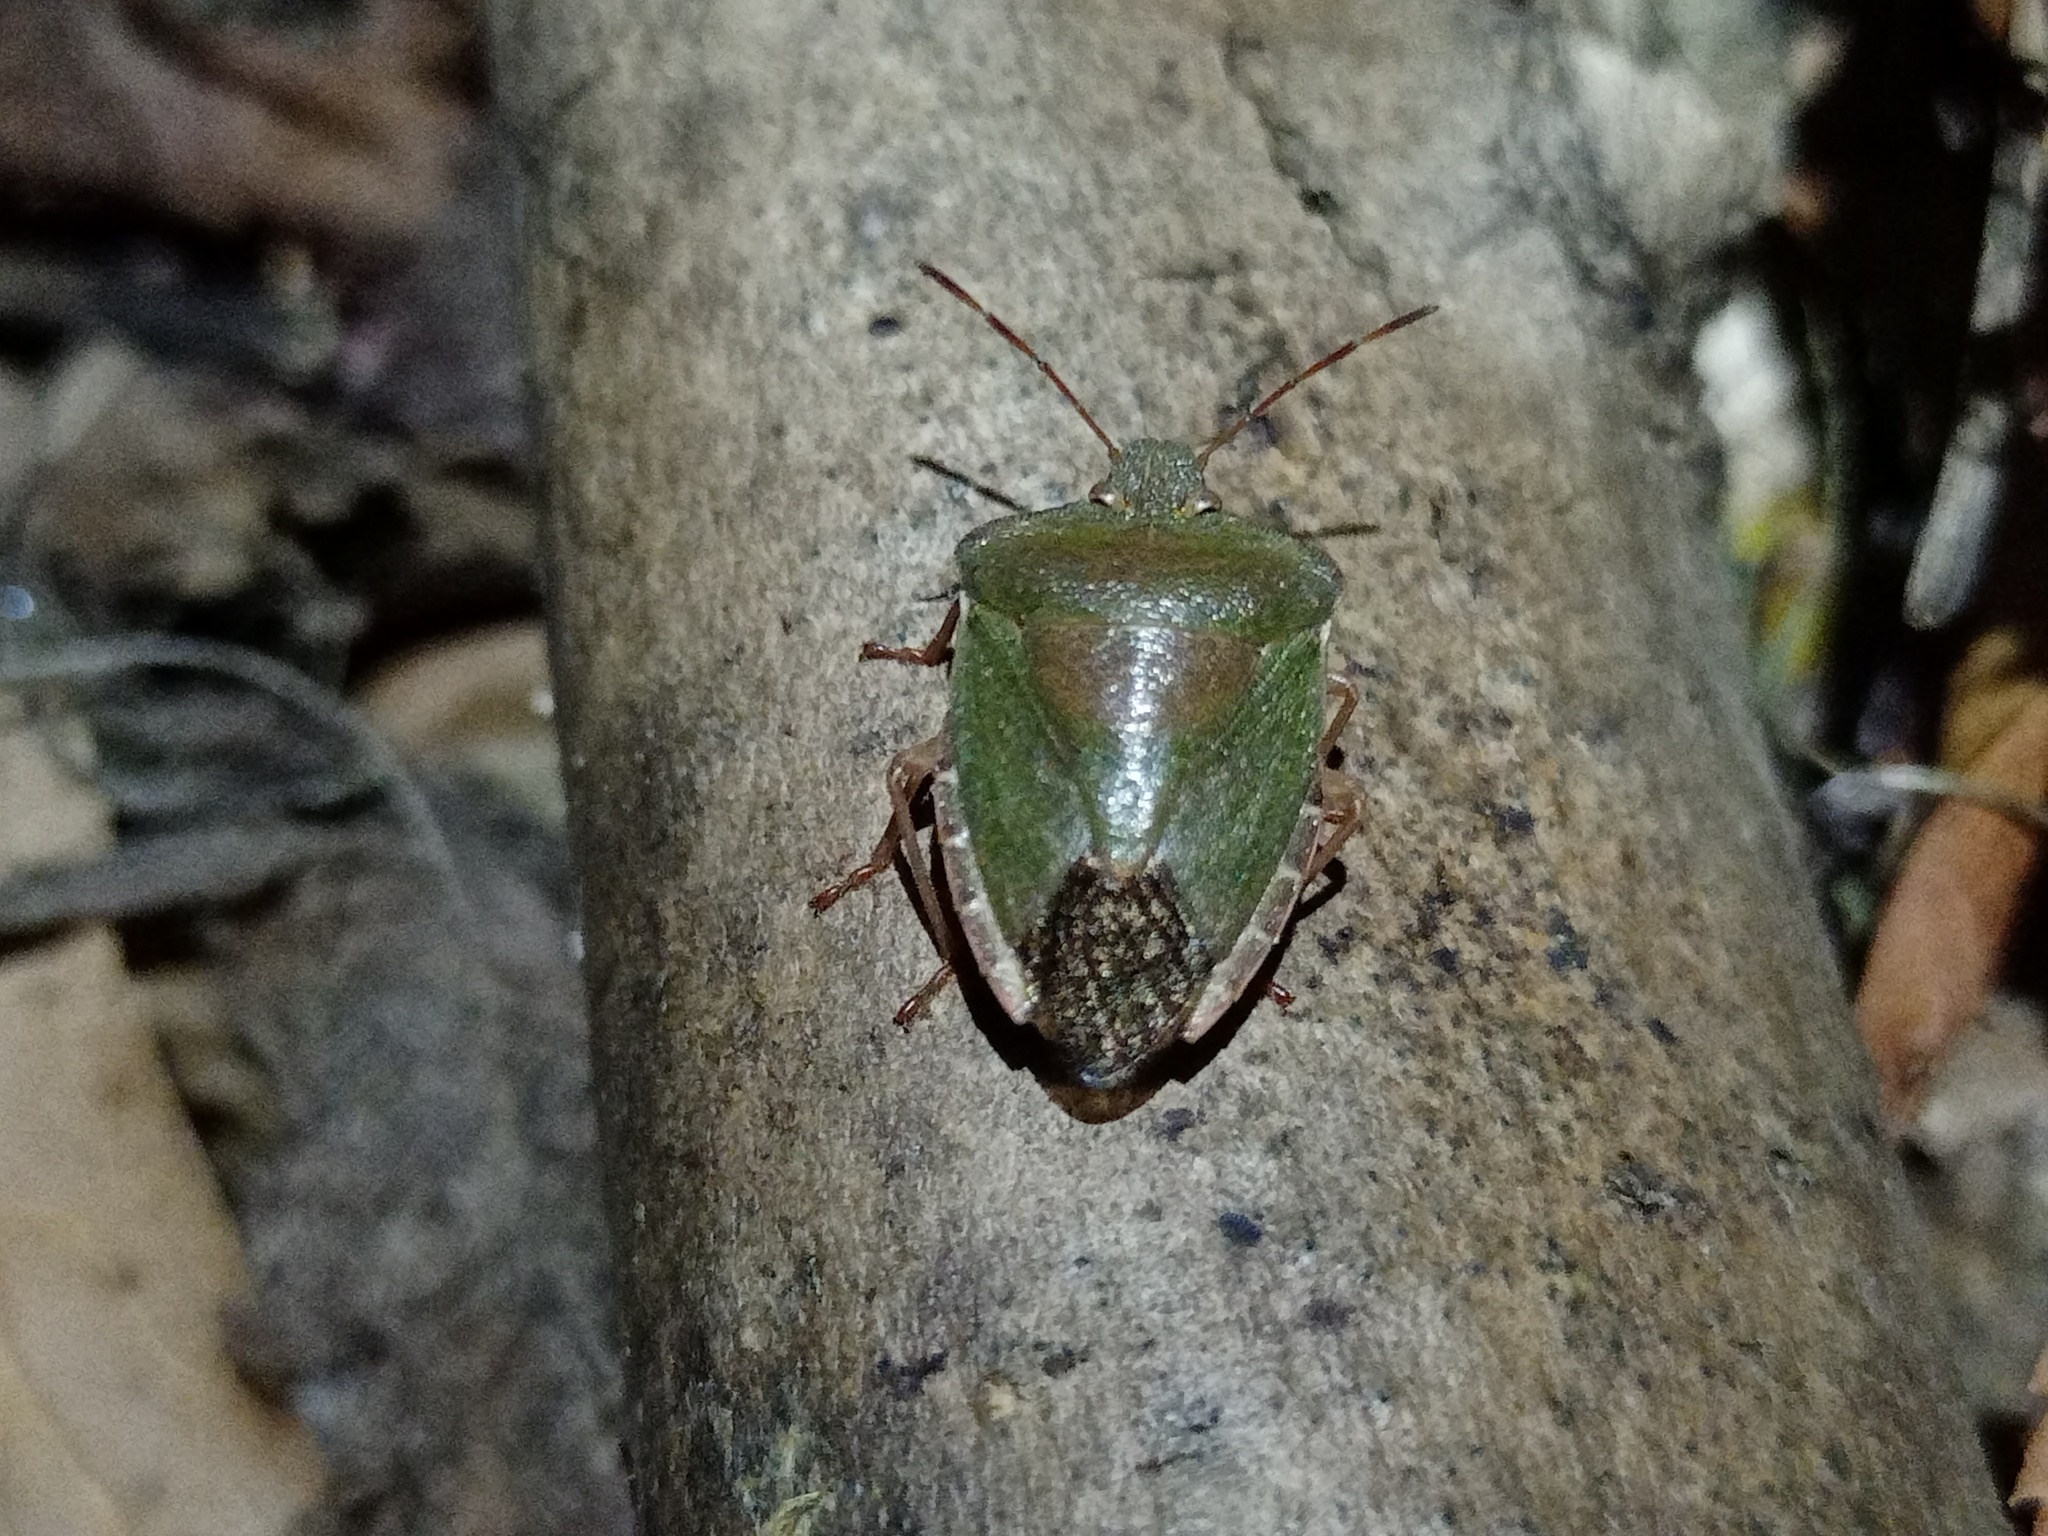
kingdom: Animalia
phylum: Arthropoda
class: Insecta
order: Hemiptera
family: Pentatomidae
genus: Palomena
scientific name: Palomena prasina
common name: Green shieldbug
